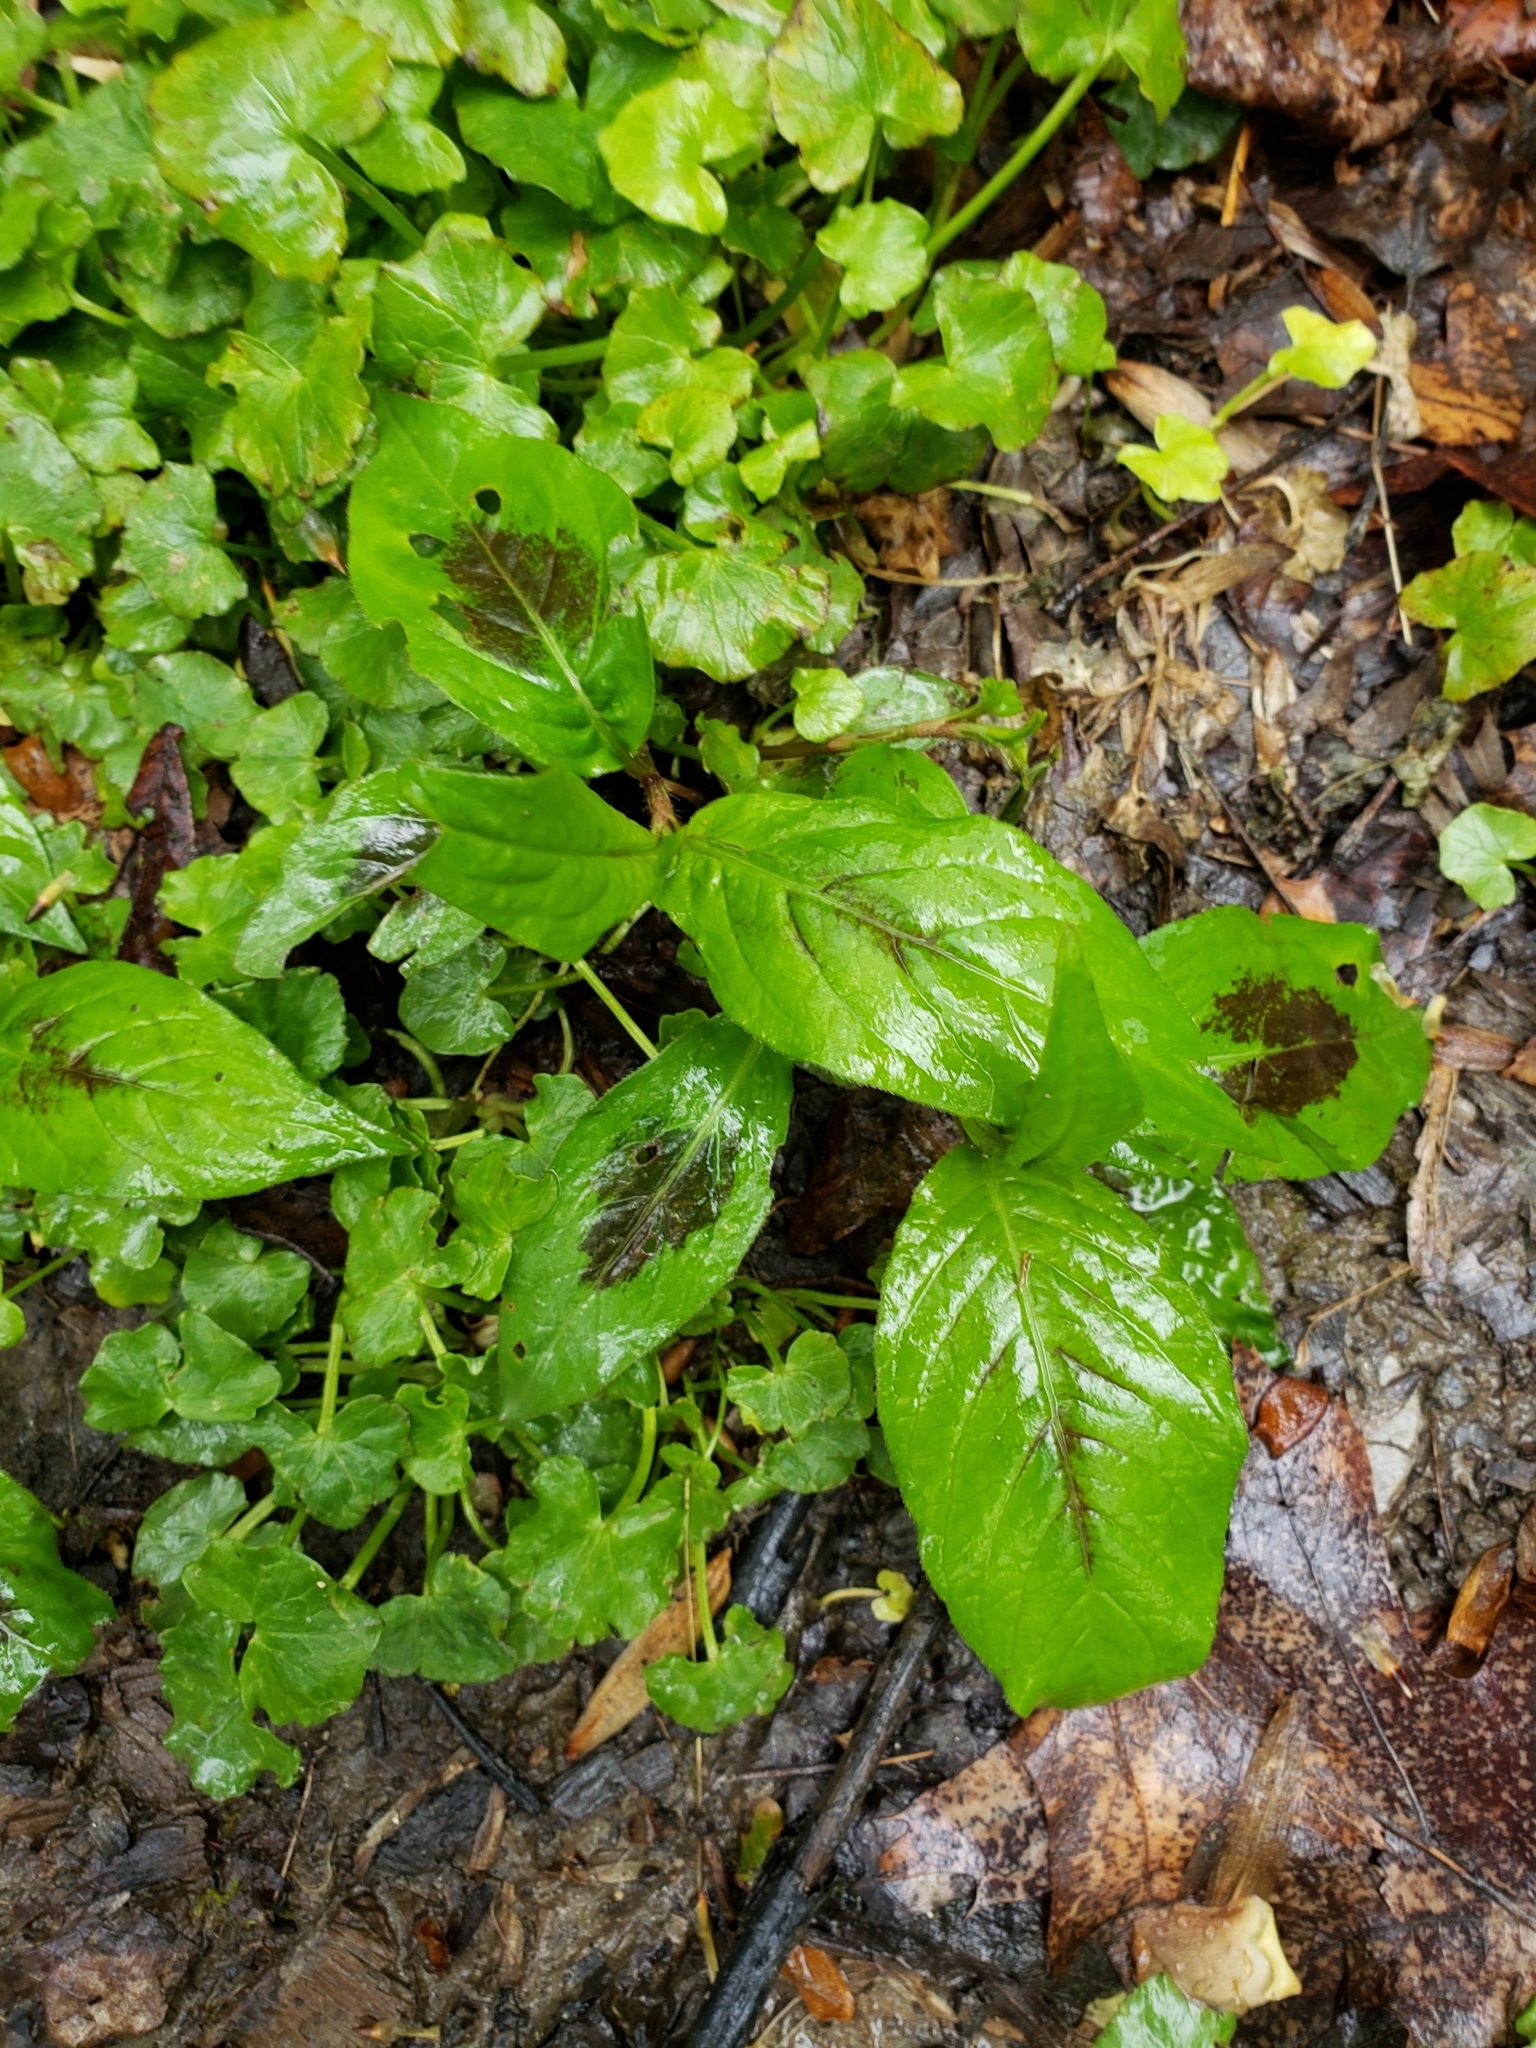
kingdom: Plantae
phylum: Tracheophyta
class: Magnoliopsida
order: Caryophyllales
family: Polygonaceae
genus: Persicaria
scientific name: Persicaria virginiana
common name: Jumpseed
